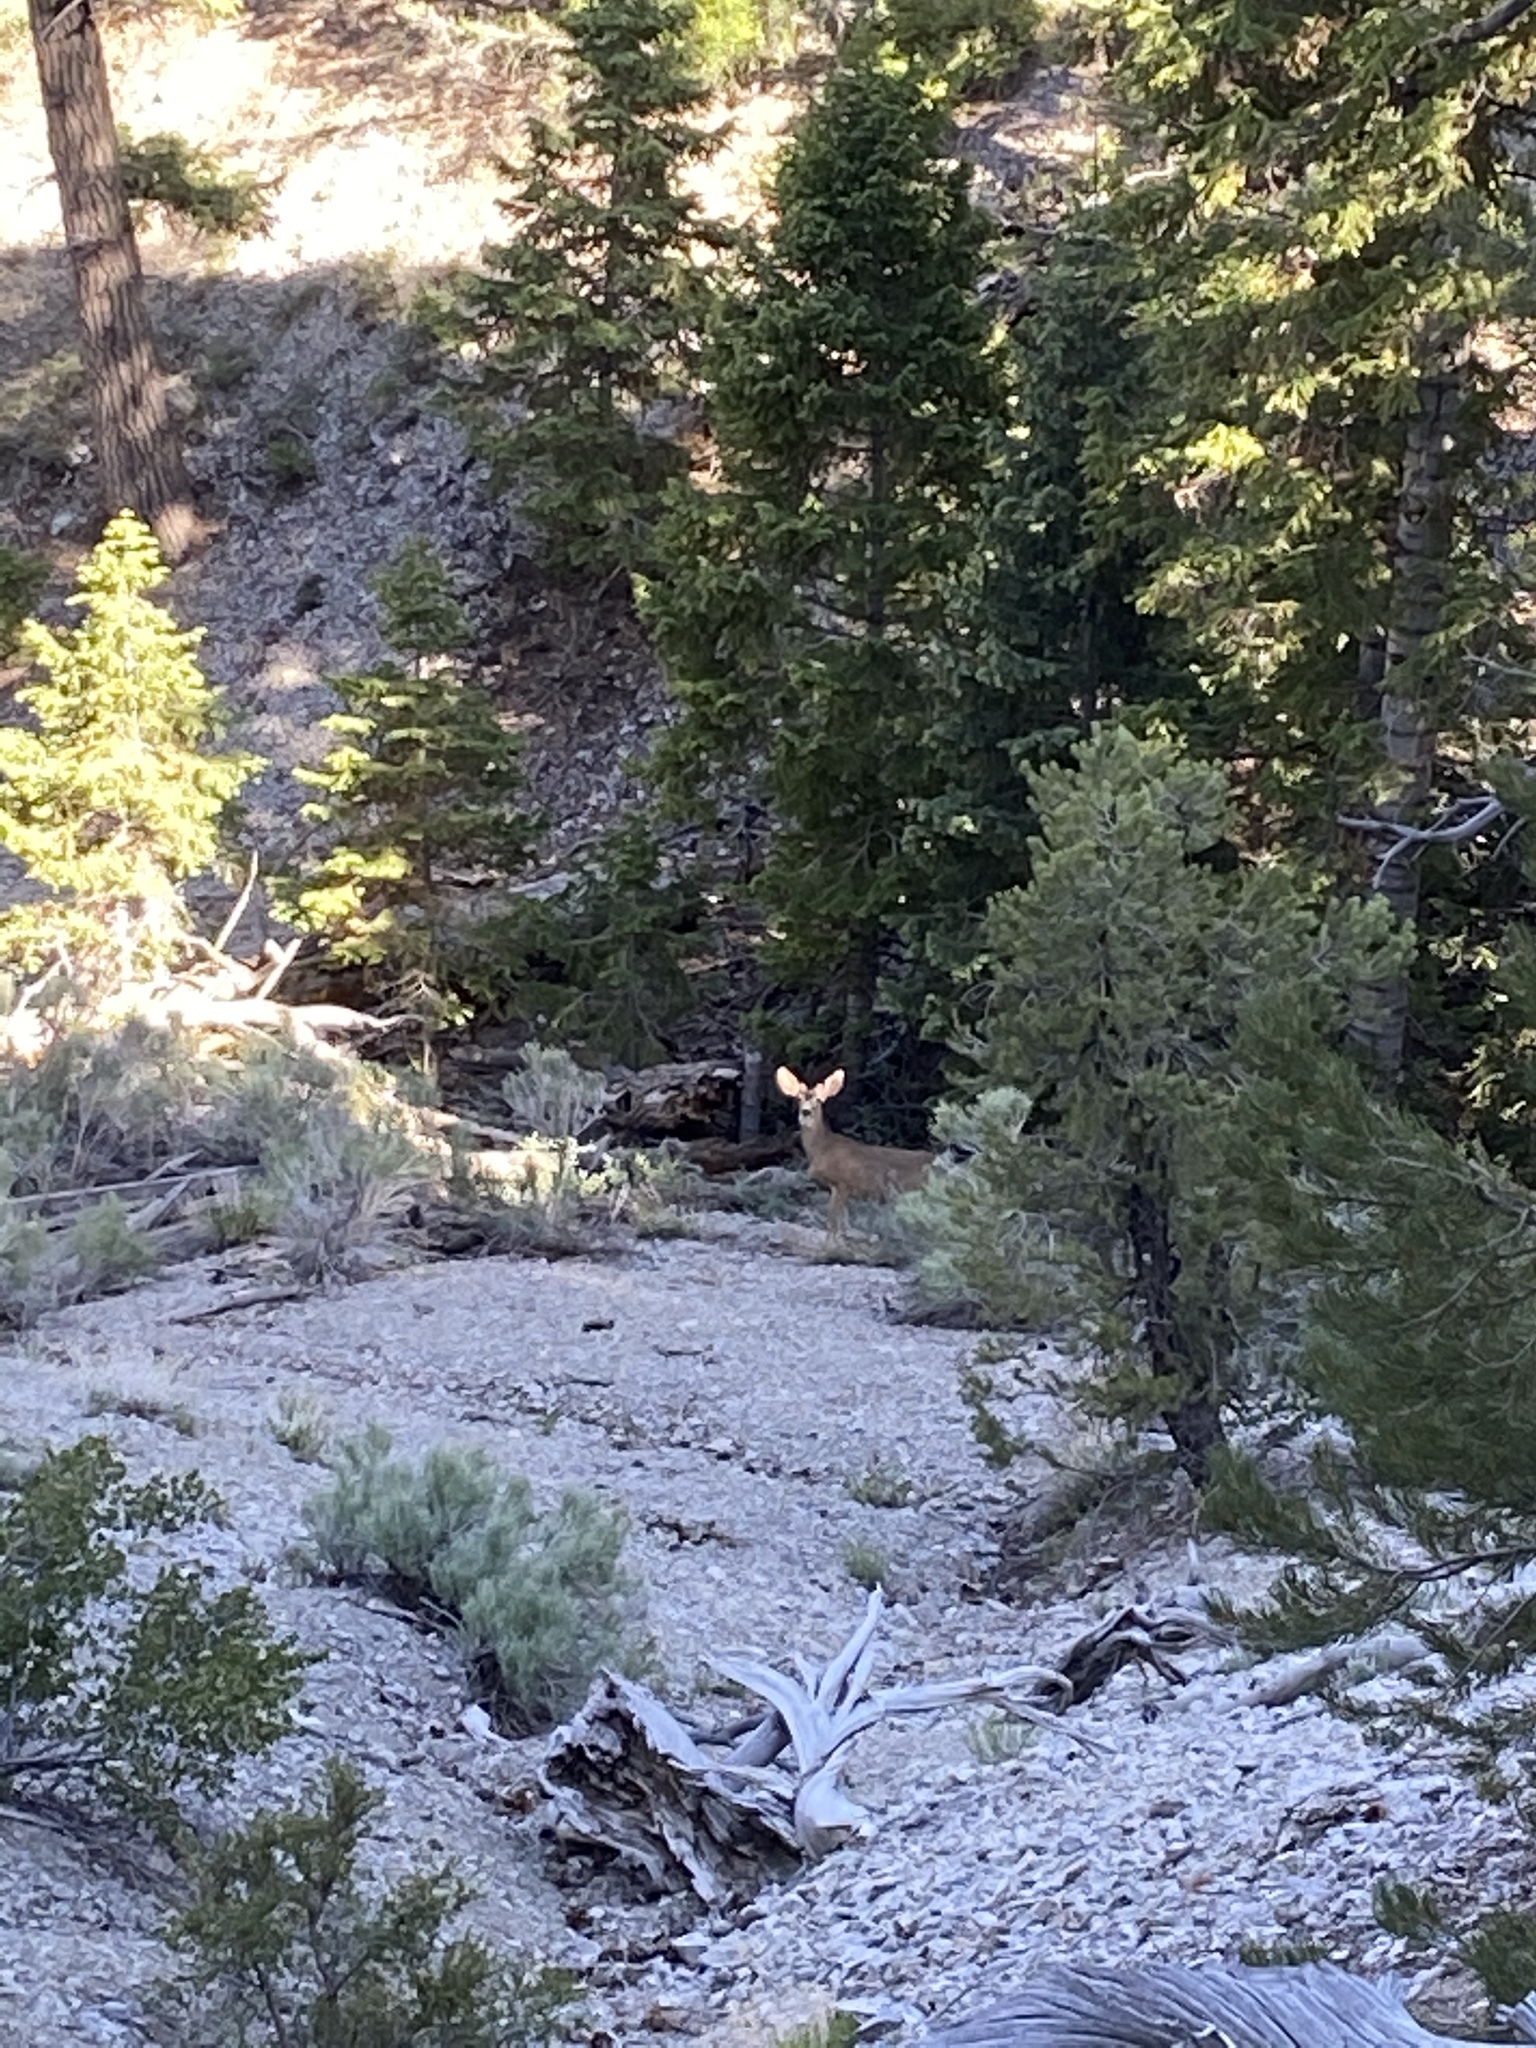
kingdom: Animalia
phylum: Chordata
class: Mammalia
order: Artiodactyla
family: Cervidae
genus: Odocoileus
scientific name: Odocoileus hemionus
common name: Mule deer
